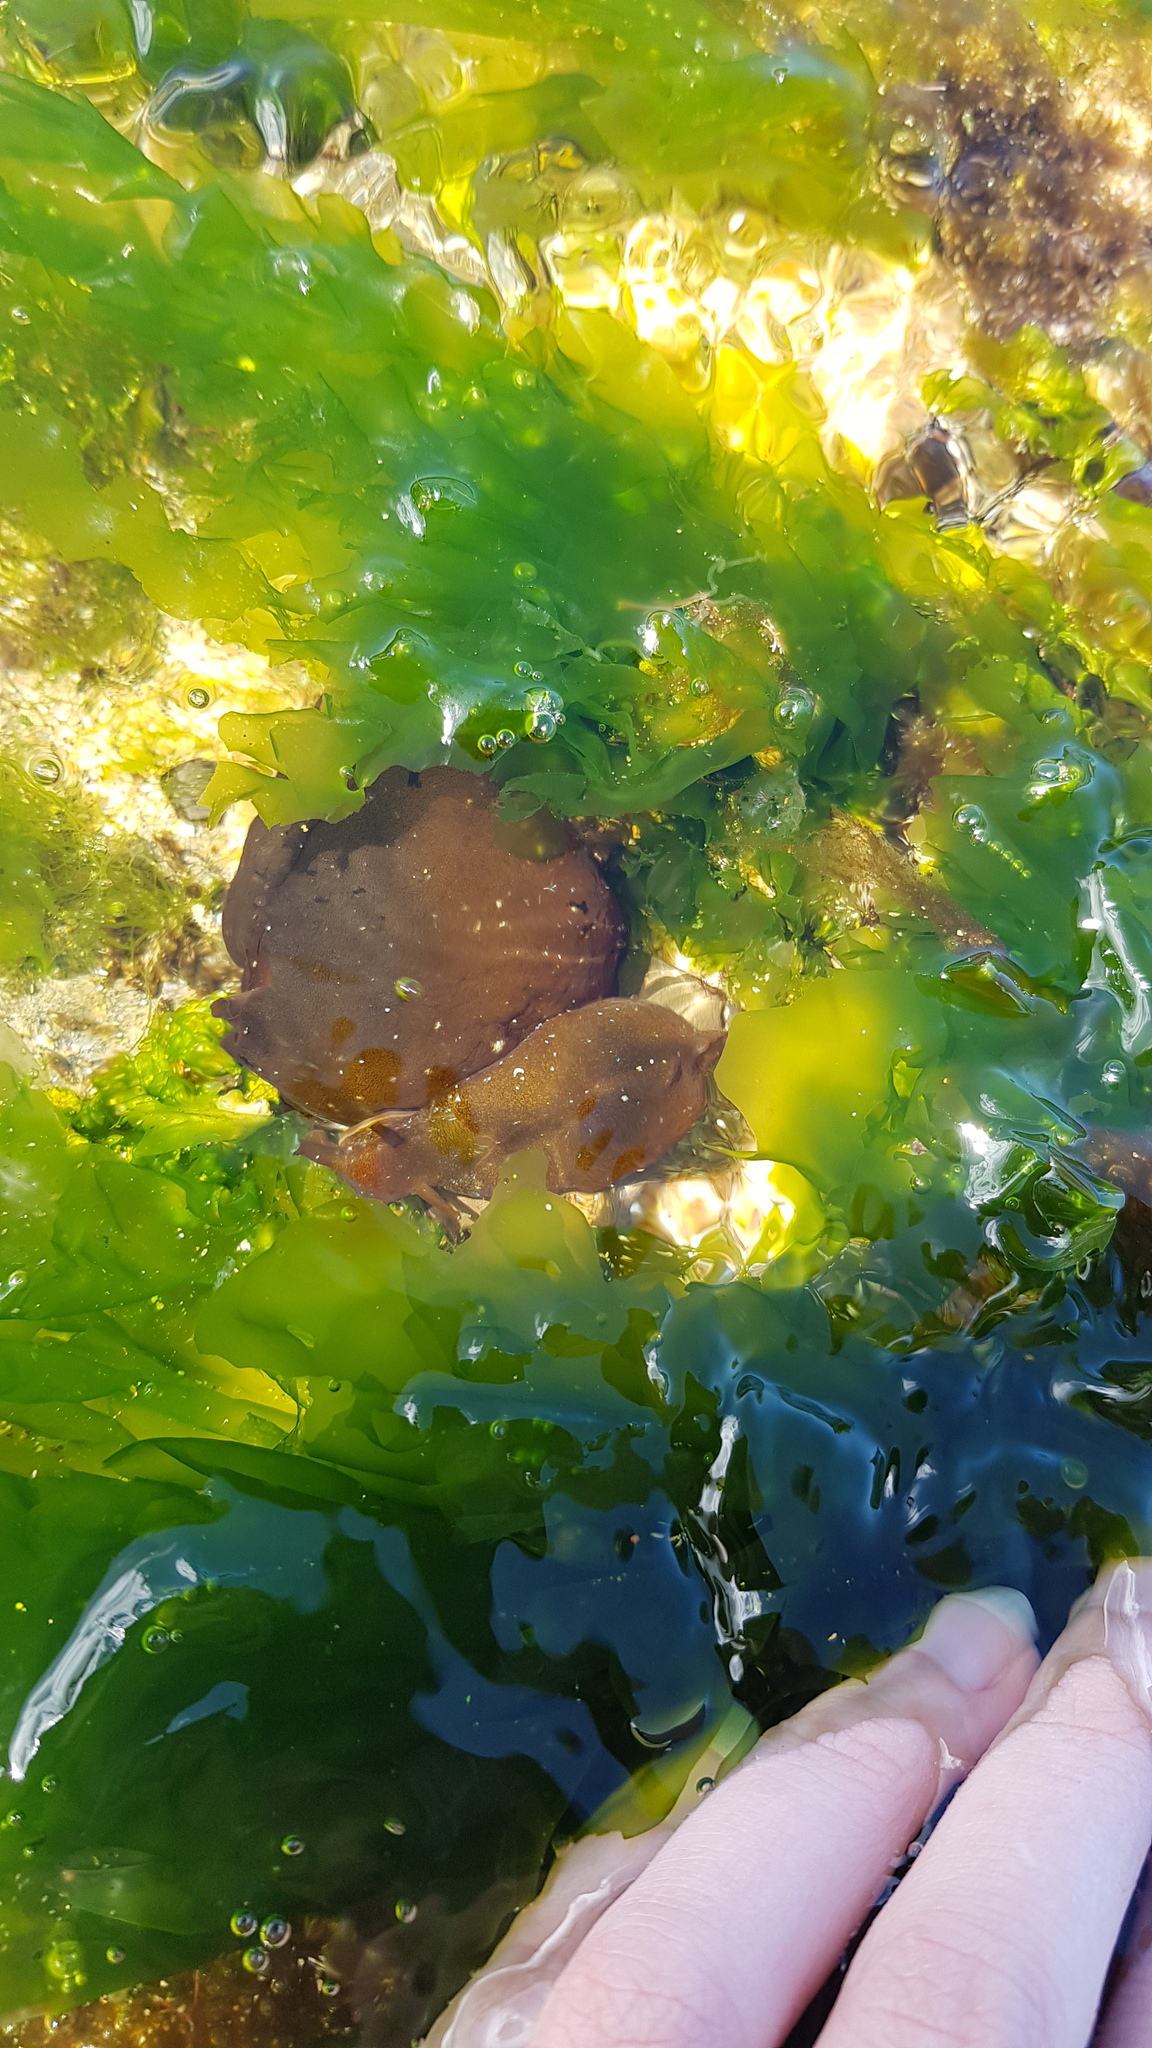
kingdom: Animalia
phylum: Mollusca
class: Gastropoda
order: Aplysiida
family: Aplysiidae
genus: Aplysia
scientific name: Aplysia juliana
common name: Walking sea hare
